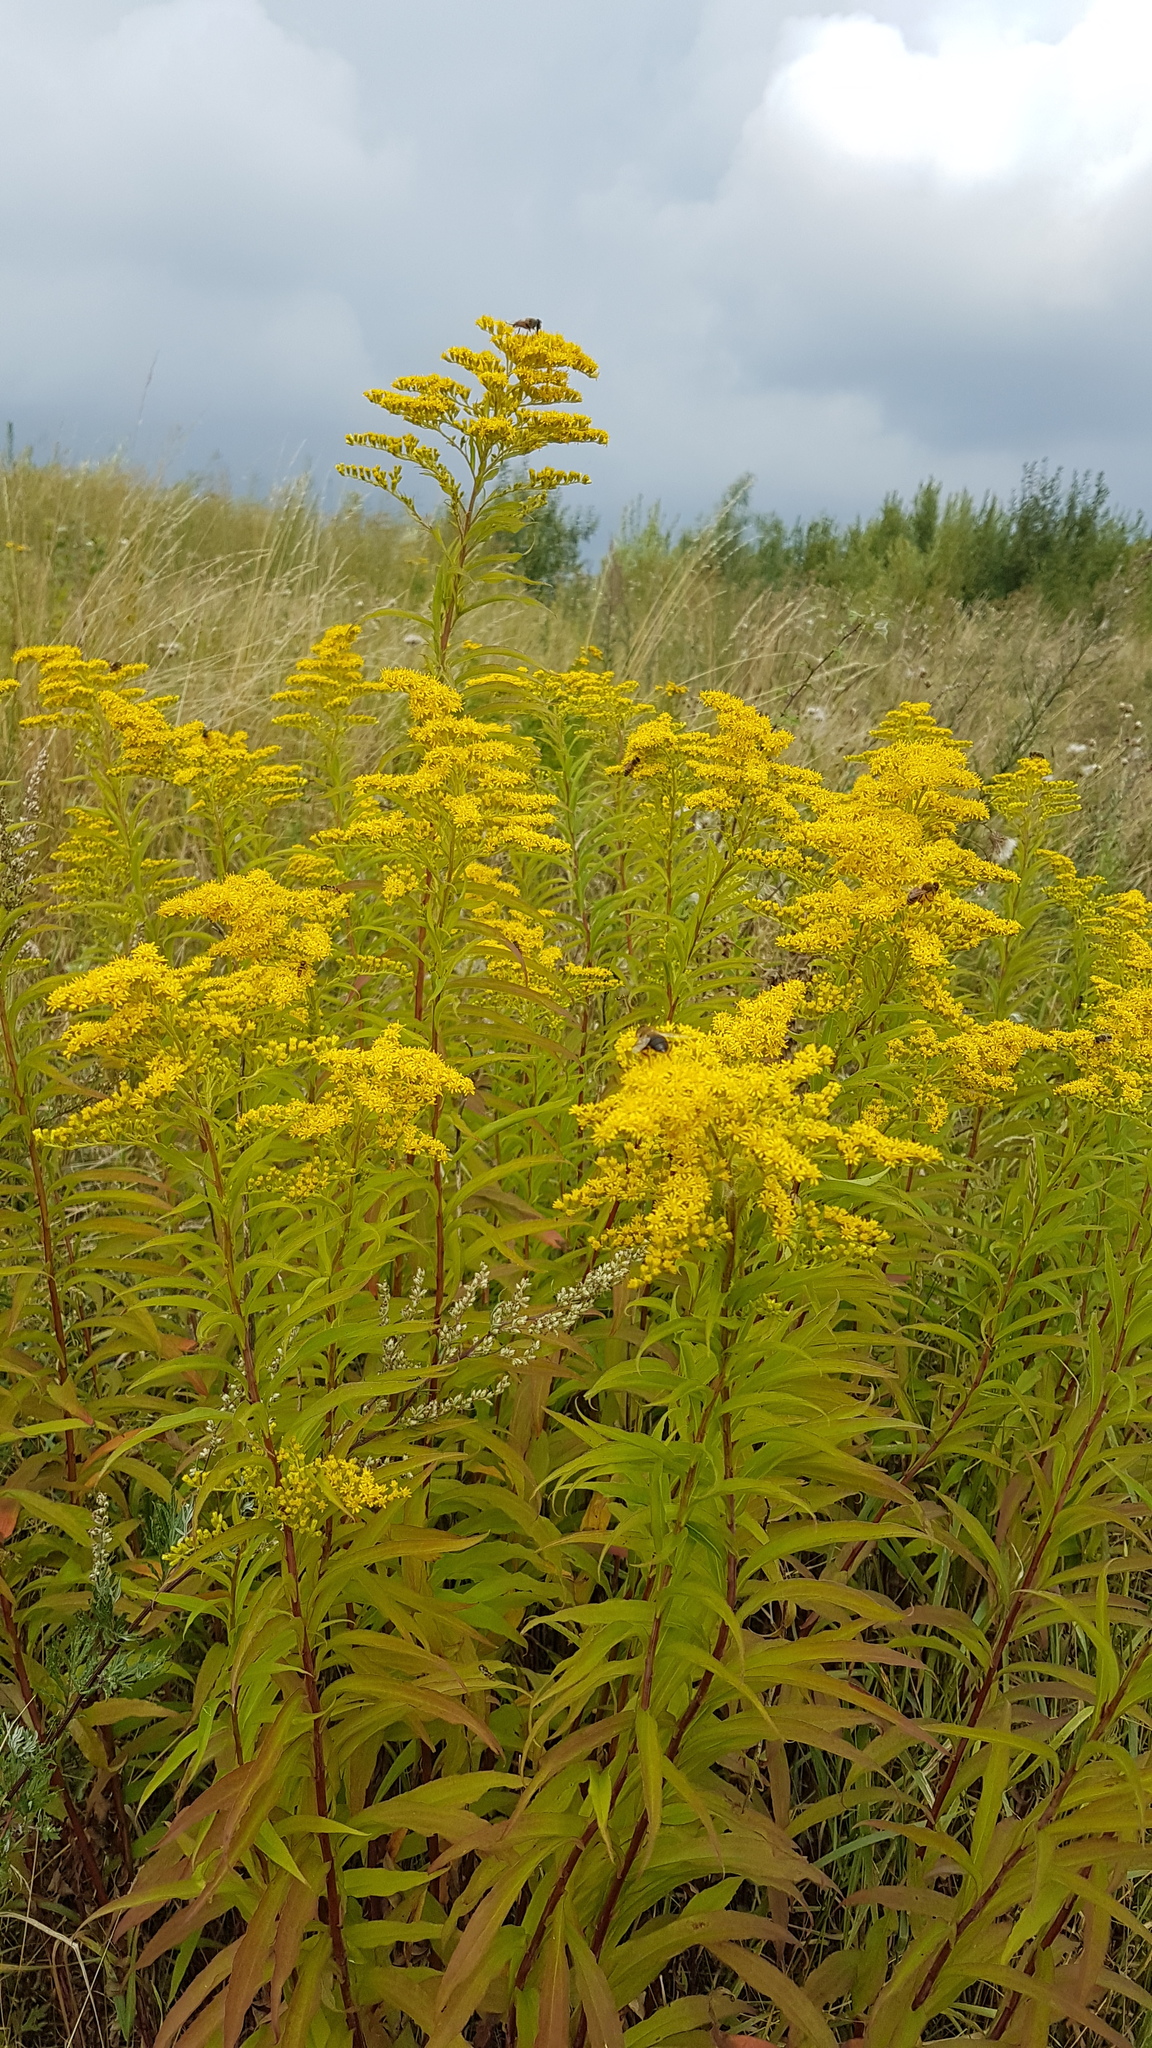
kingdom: Plantae
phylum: Tracheophyta
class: Magnoliopsida
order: Asterales
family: Asteraceae
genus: Solidago
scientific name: Solidago gigantea
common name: Giant goldenrod
